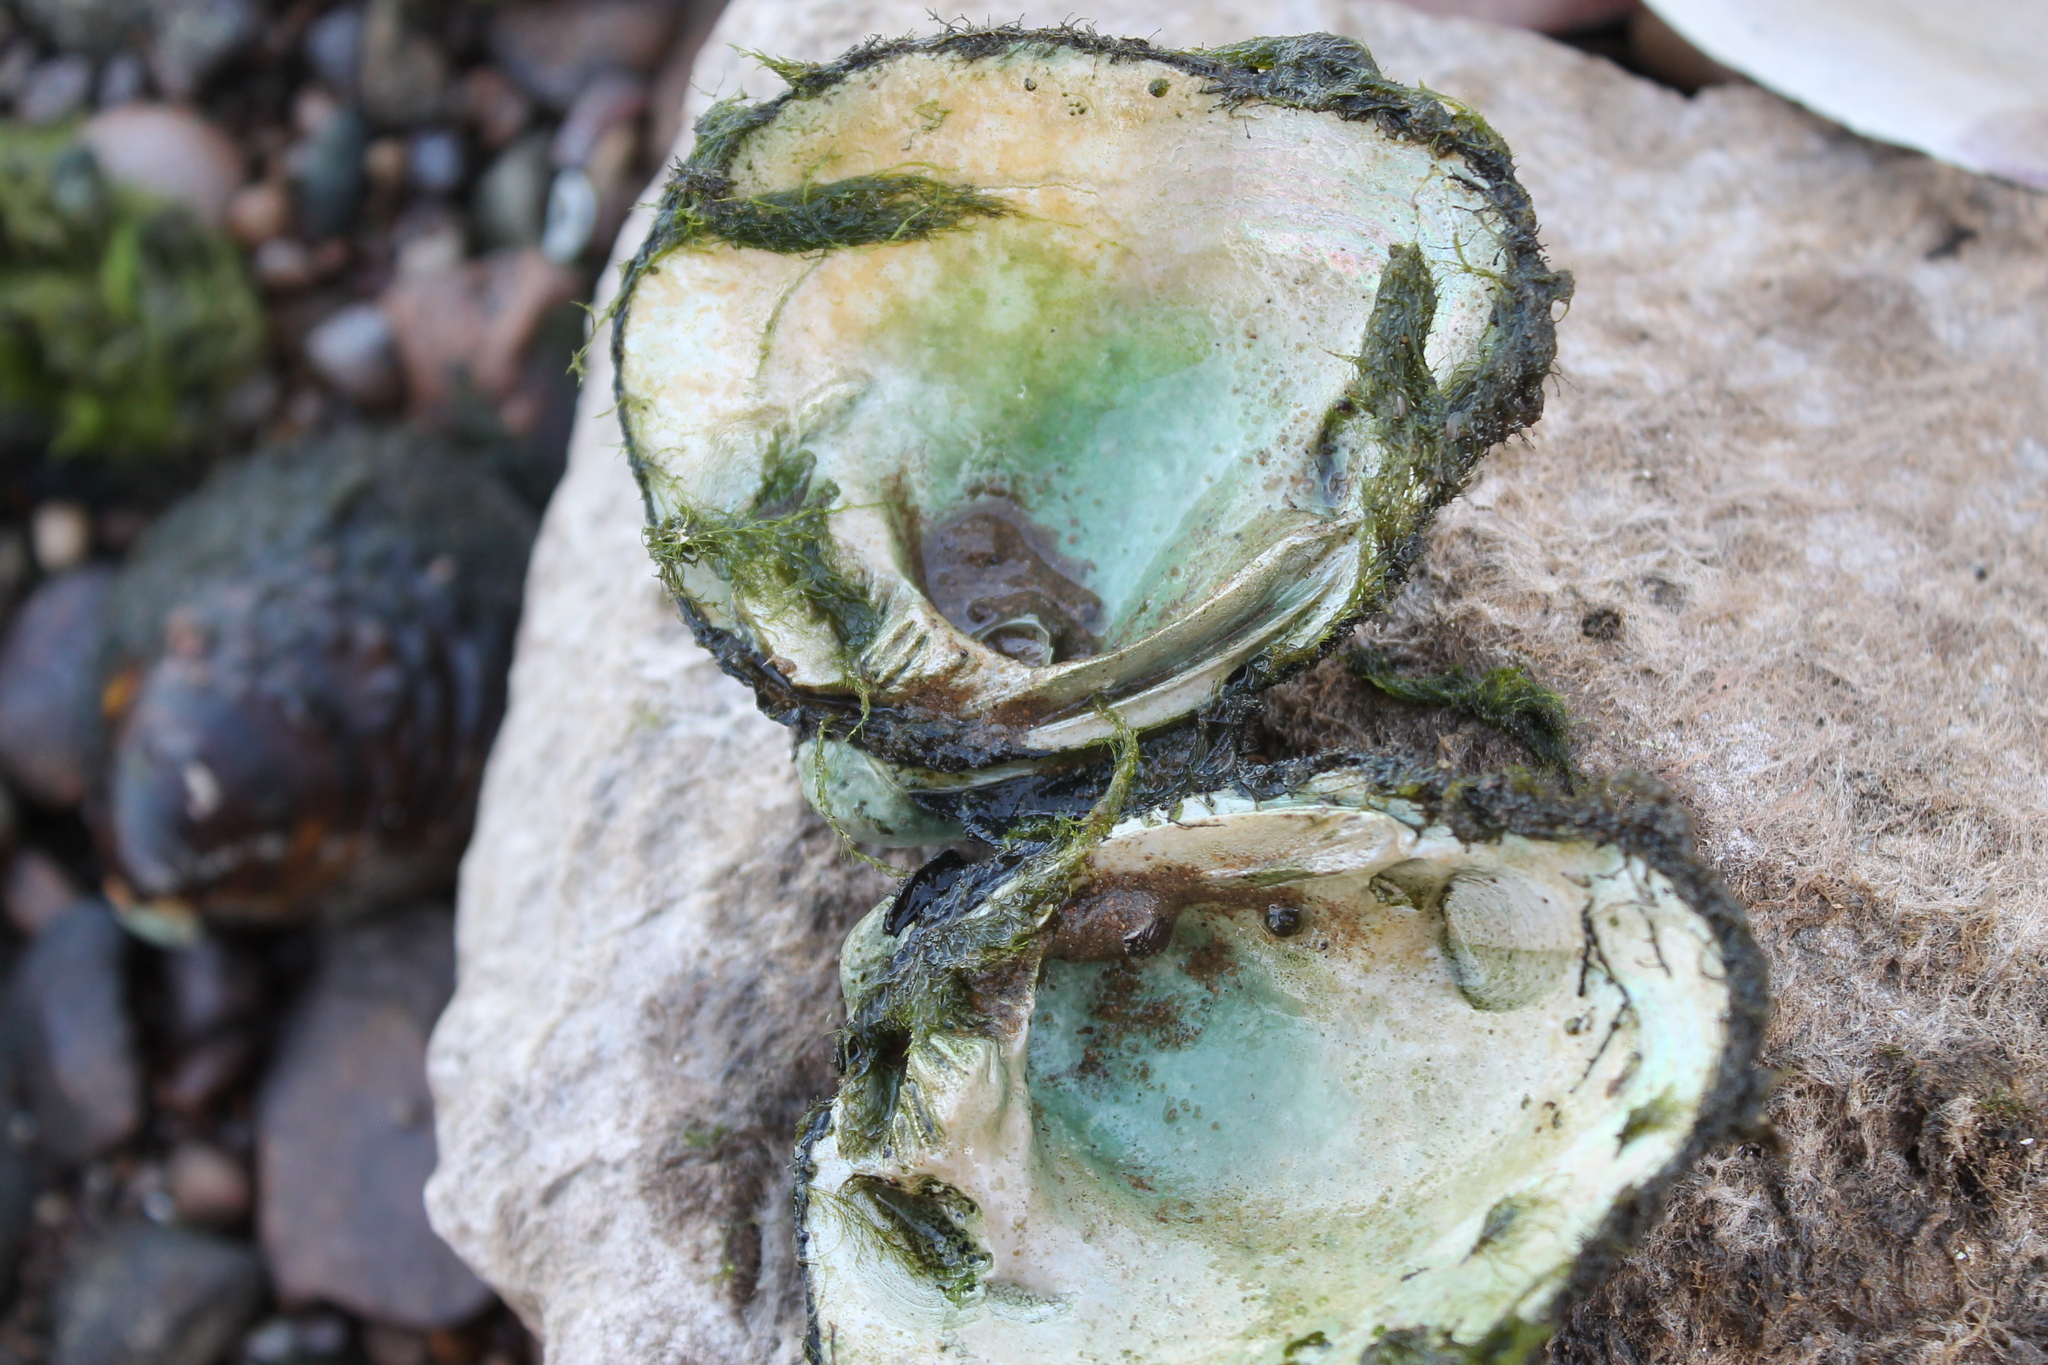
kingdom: Animalia
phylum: Mollusca
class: Bivalvia
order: Unionida
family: Unionidae
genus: Fusconaia
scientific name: Fusconaia flava
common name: Wabash pigtoe
